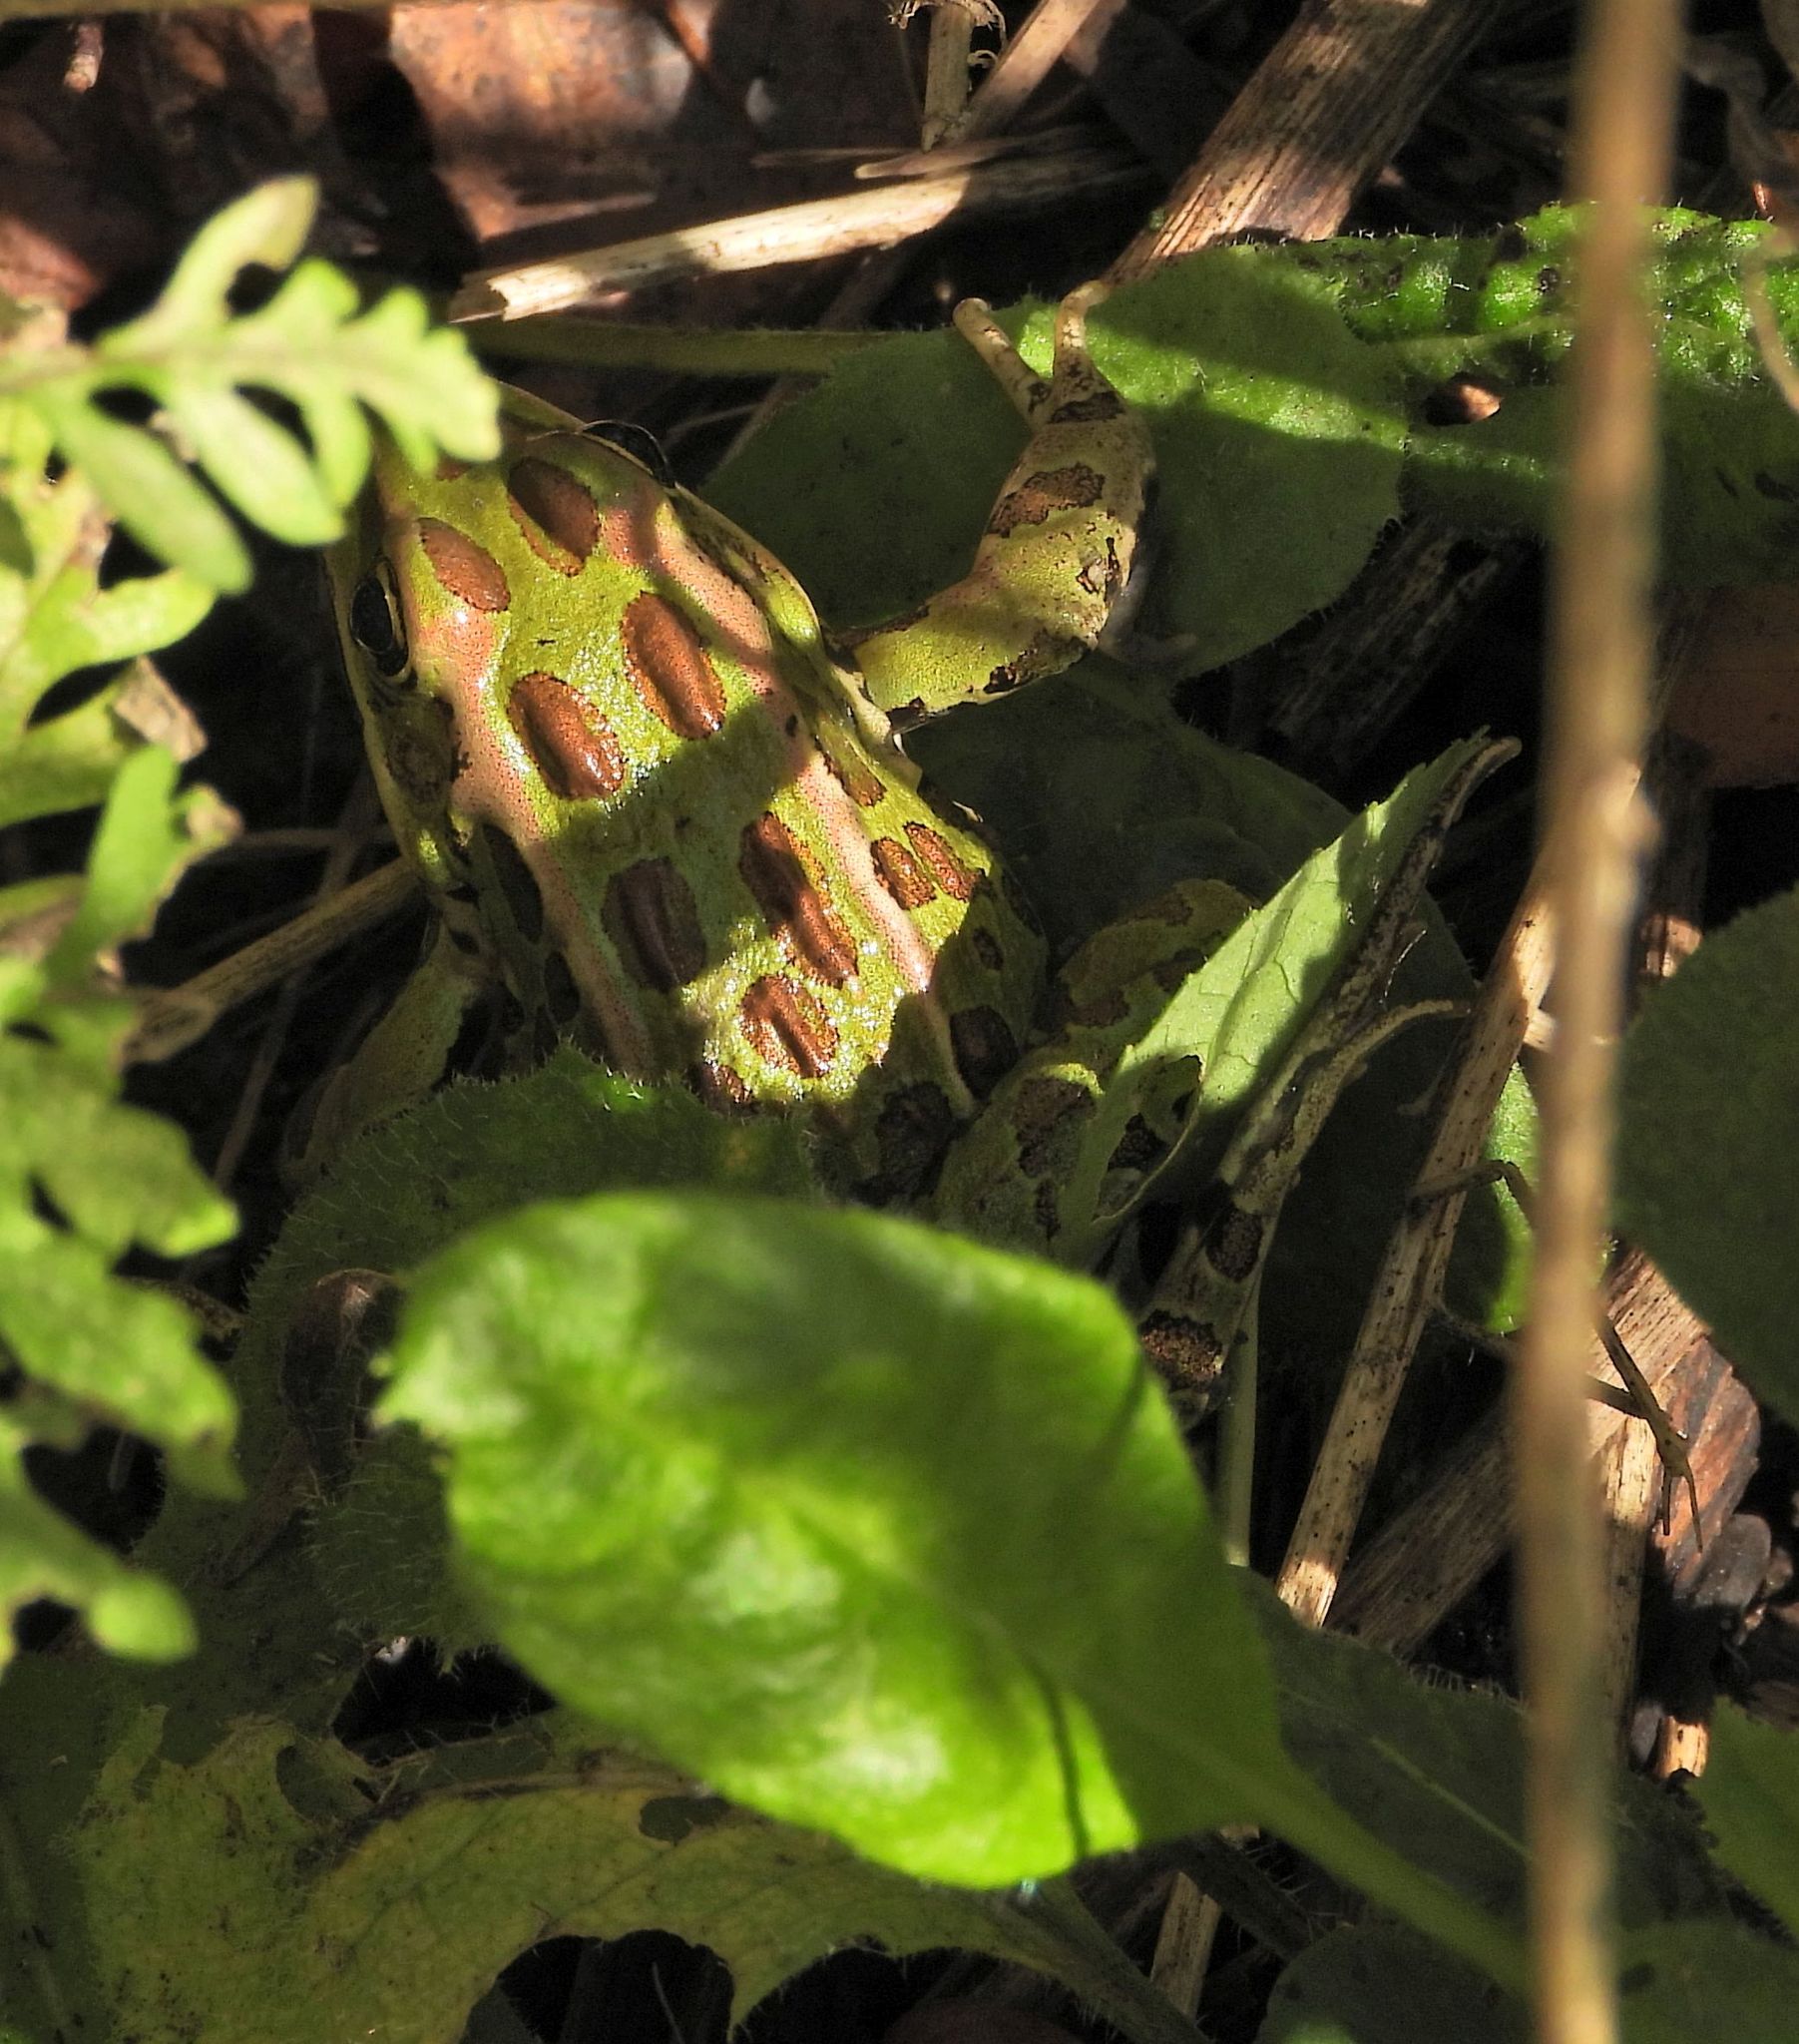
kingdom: Animalia
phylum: Chordata
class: Amphibia
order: Anura
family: Ranidae
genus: Lithobates
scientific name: Lithobates pipiens
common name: Northern leopard frog
